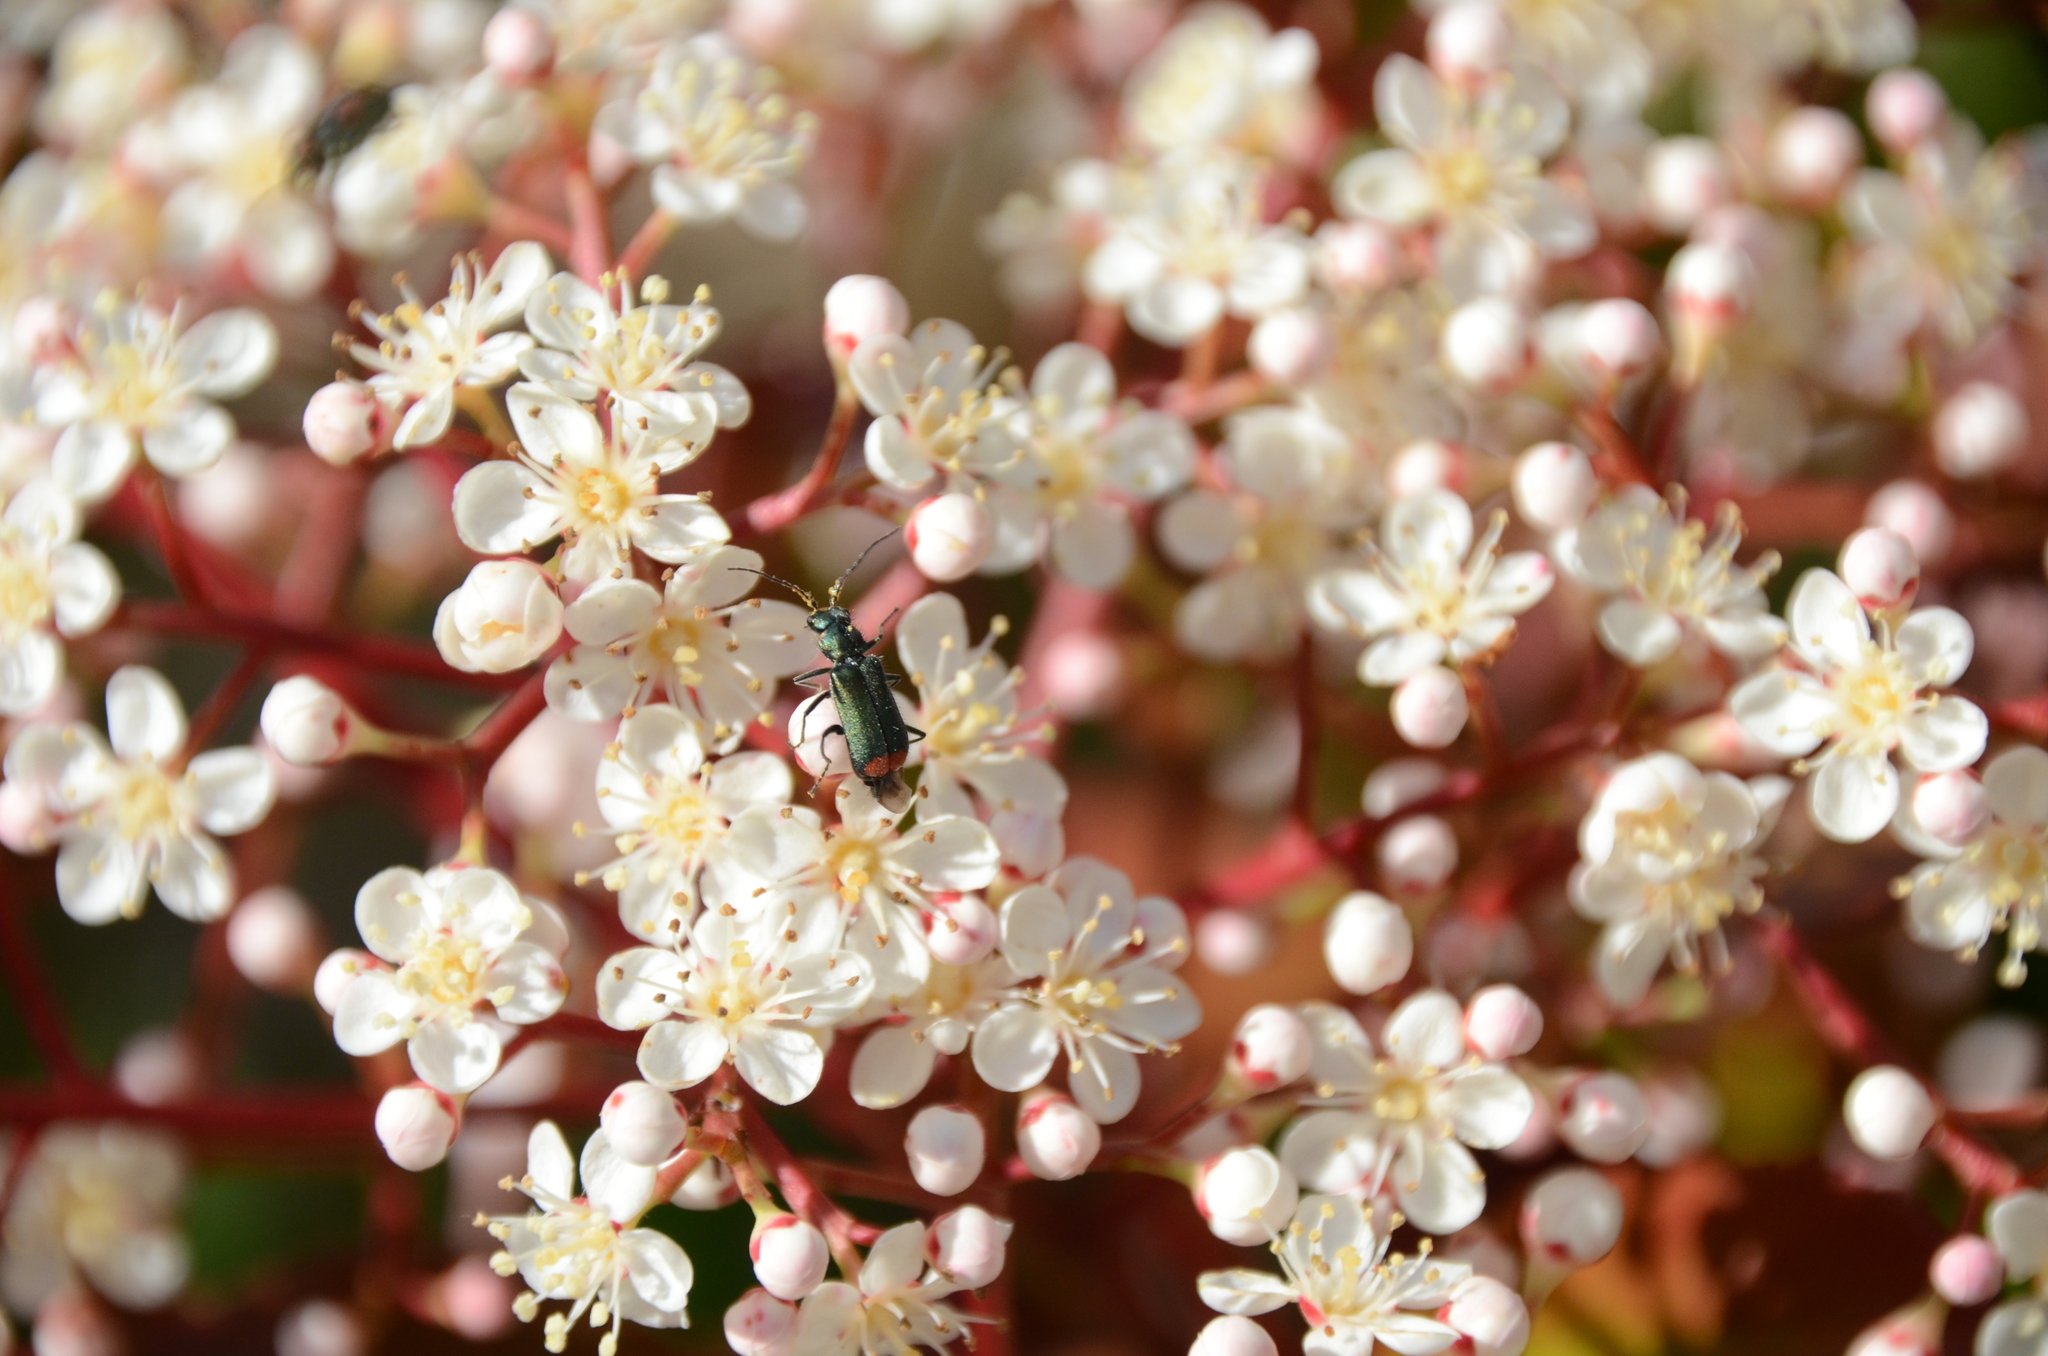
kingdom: Animalia
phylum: Arthropoda
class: Insecta
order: Coleoptera
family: Melyridae
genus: Malachius
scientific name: Malachius bipustulatus
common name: Malachite beetle
